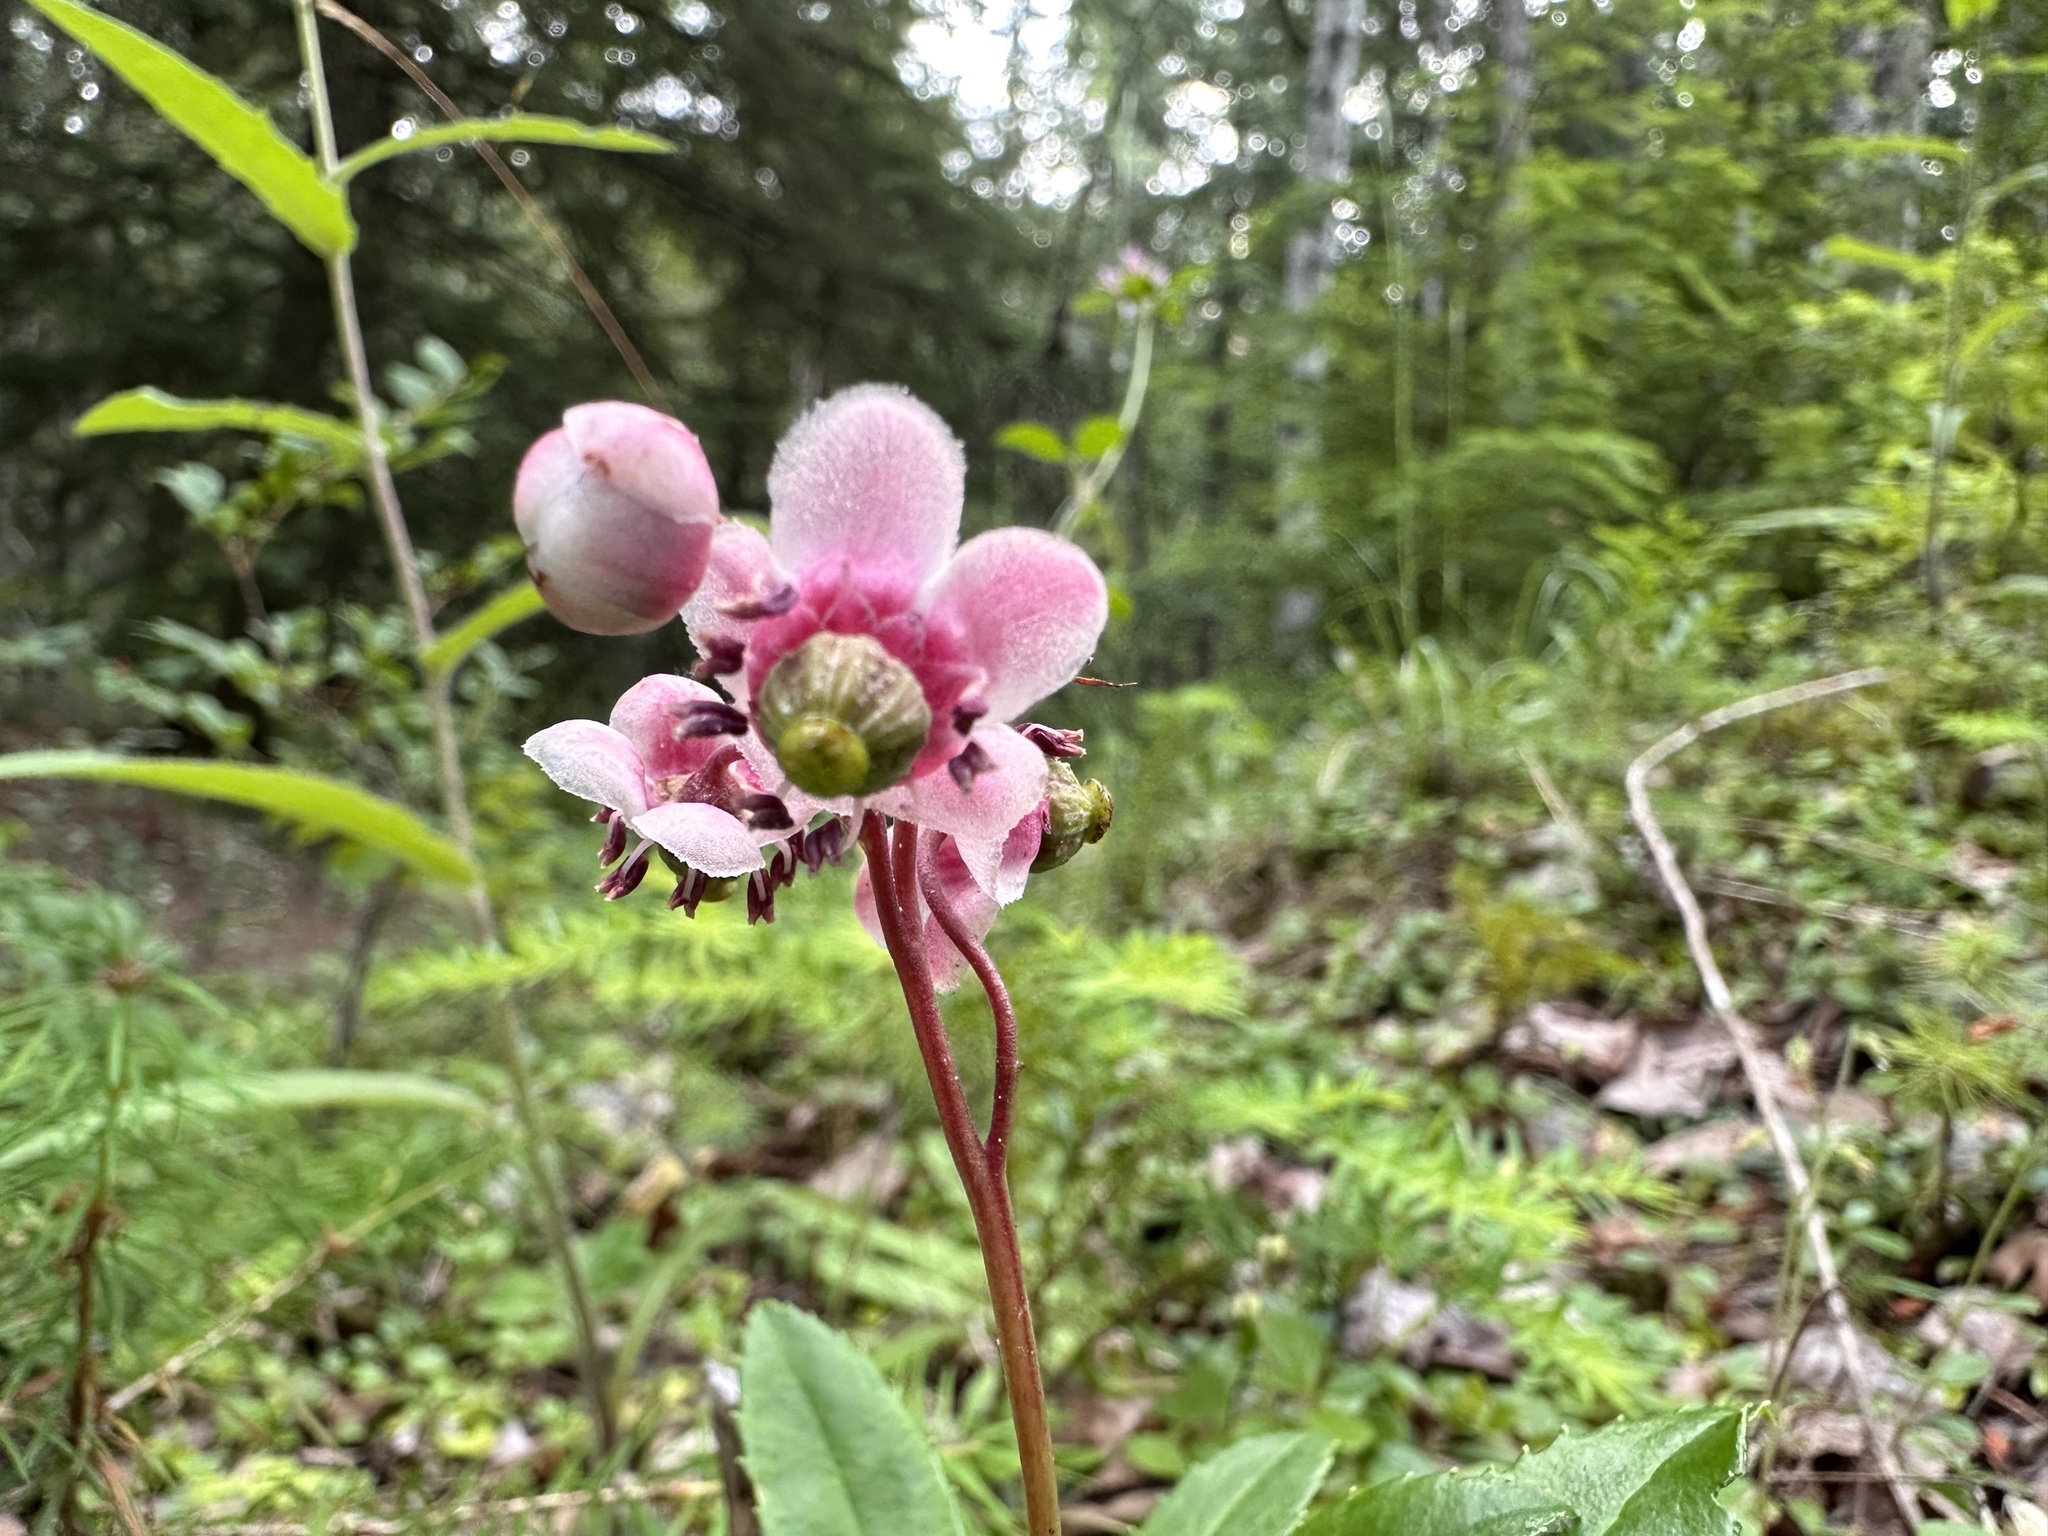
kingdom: Plantae
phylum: Tracheophyta
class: Magnoliopsida
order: Ericales
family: Ericaceae
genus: Chimaphila
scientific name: Chimaphila umbellata
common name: Pipsissewa
